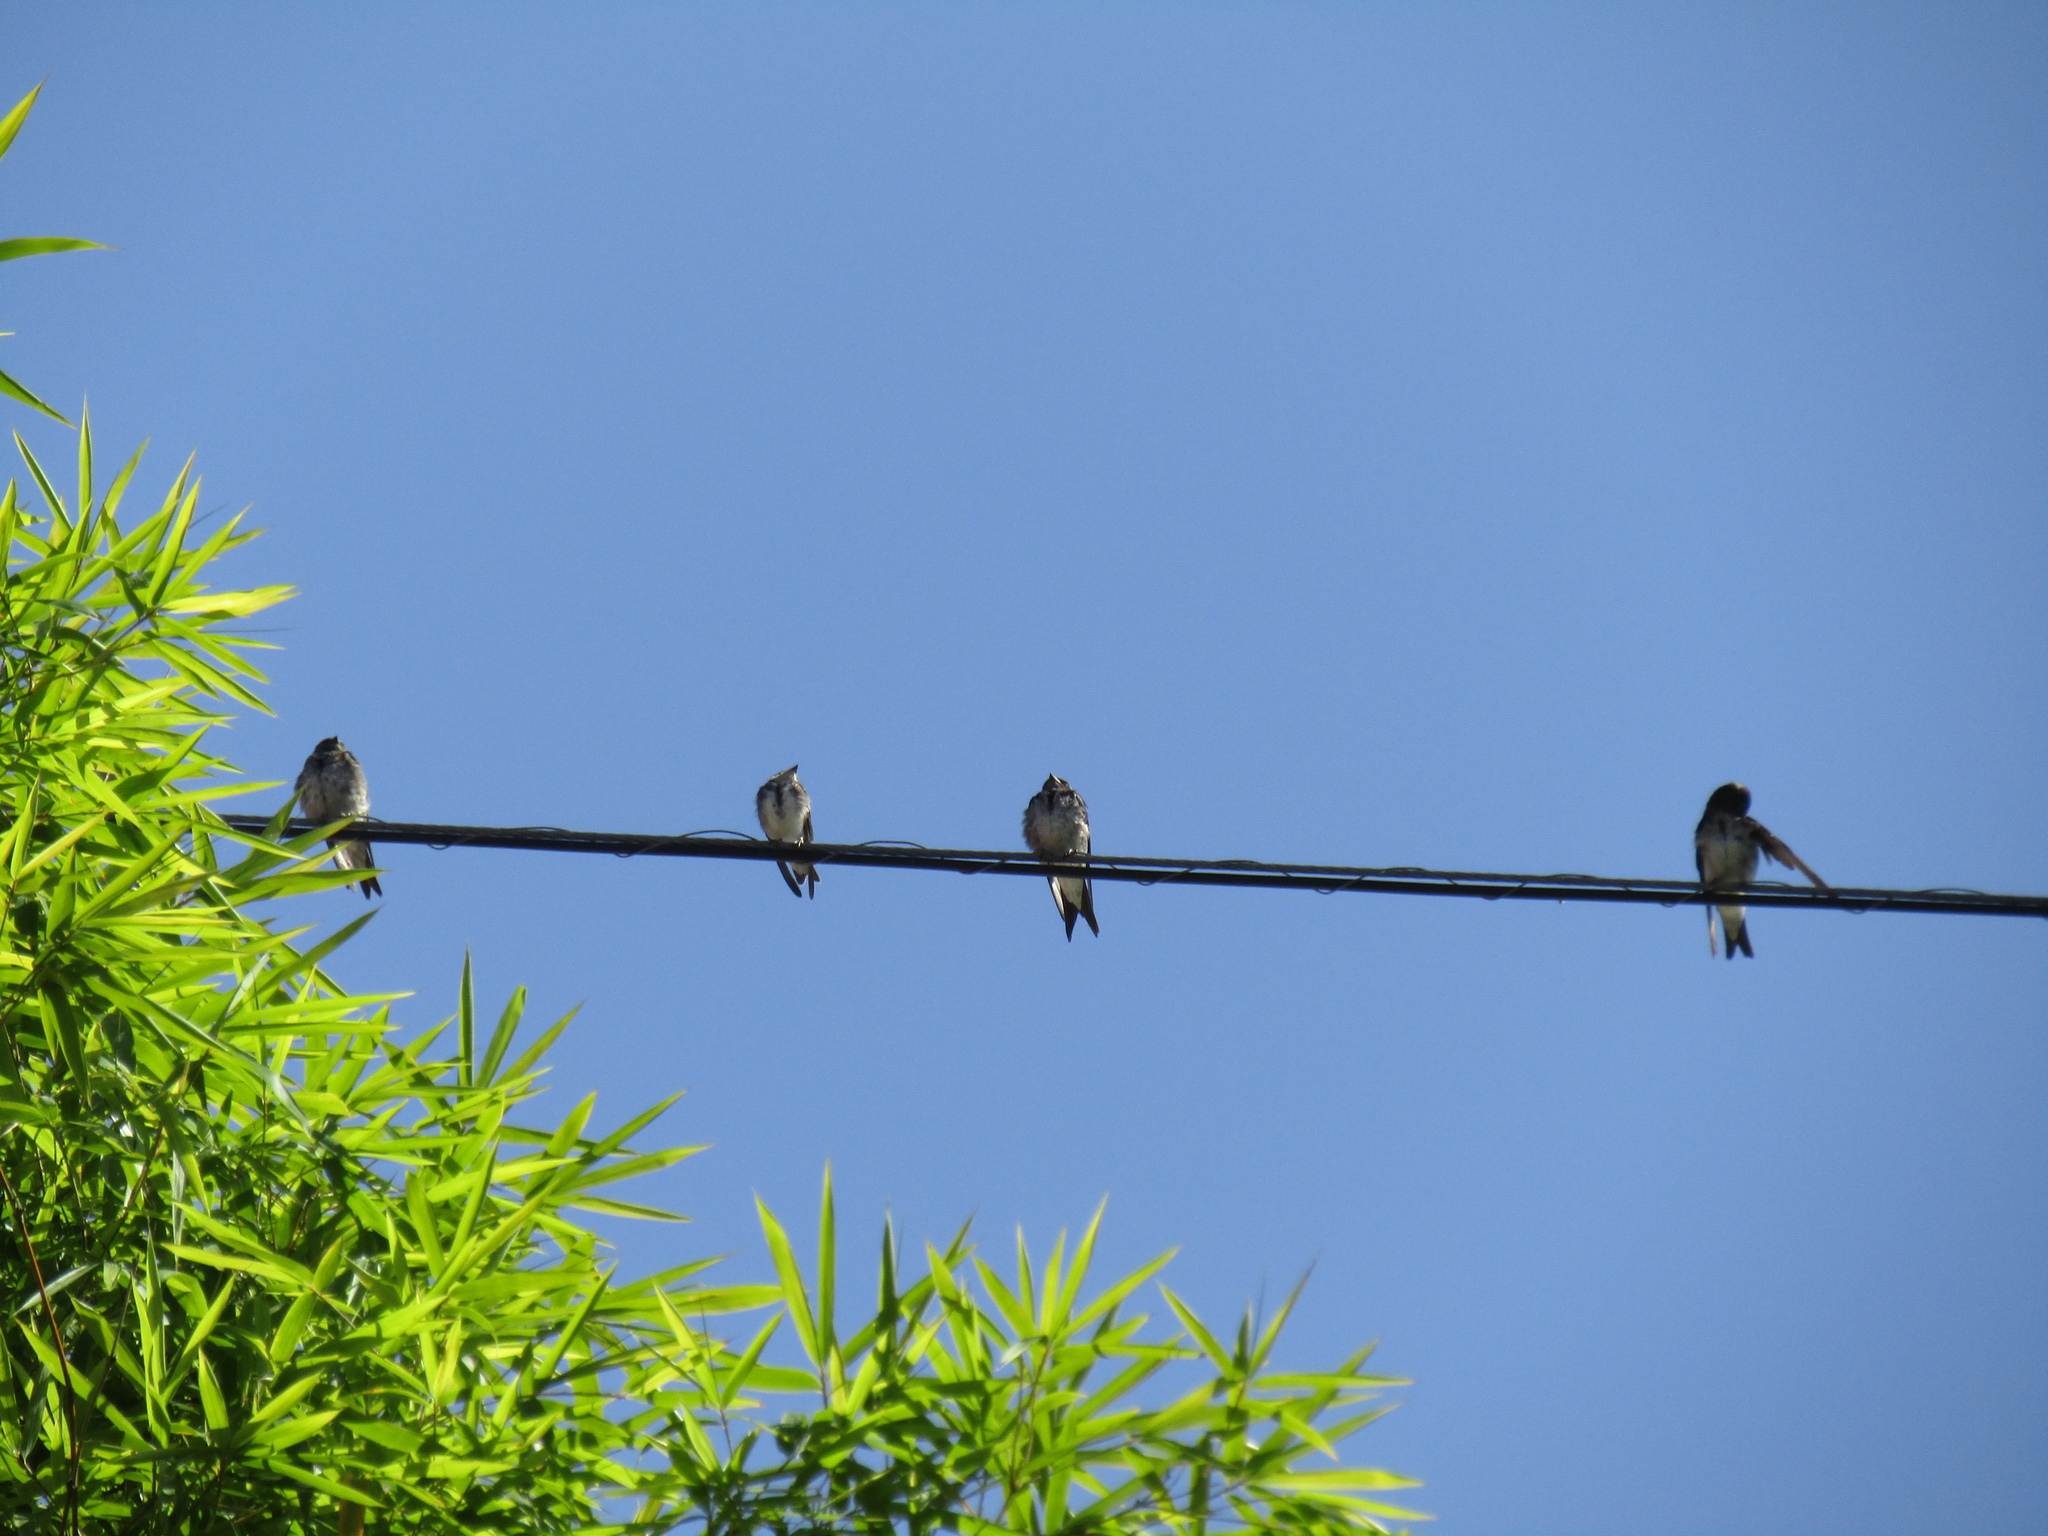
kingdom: Animalia
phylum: Chordata
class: Aves
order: Passeriformes
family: Hirundinidae
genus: Progne
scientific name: Progne tapera
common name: Brown-chested martin
